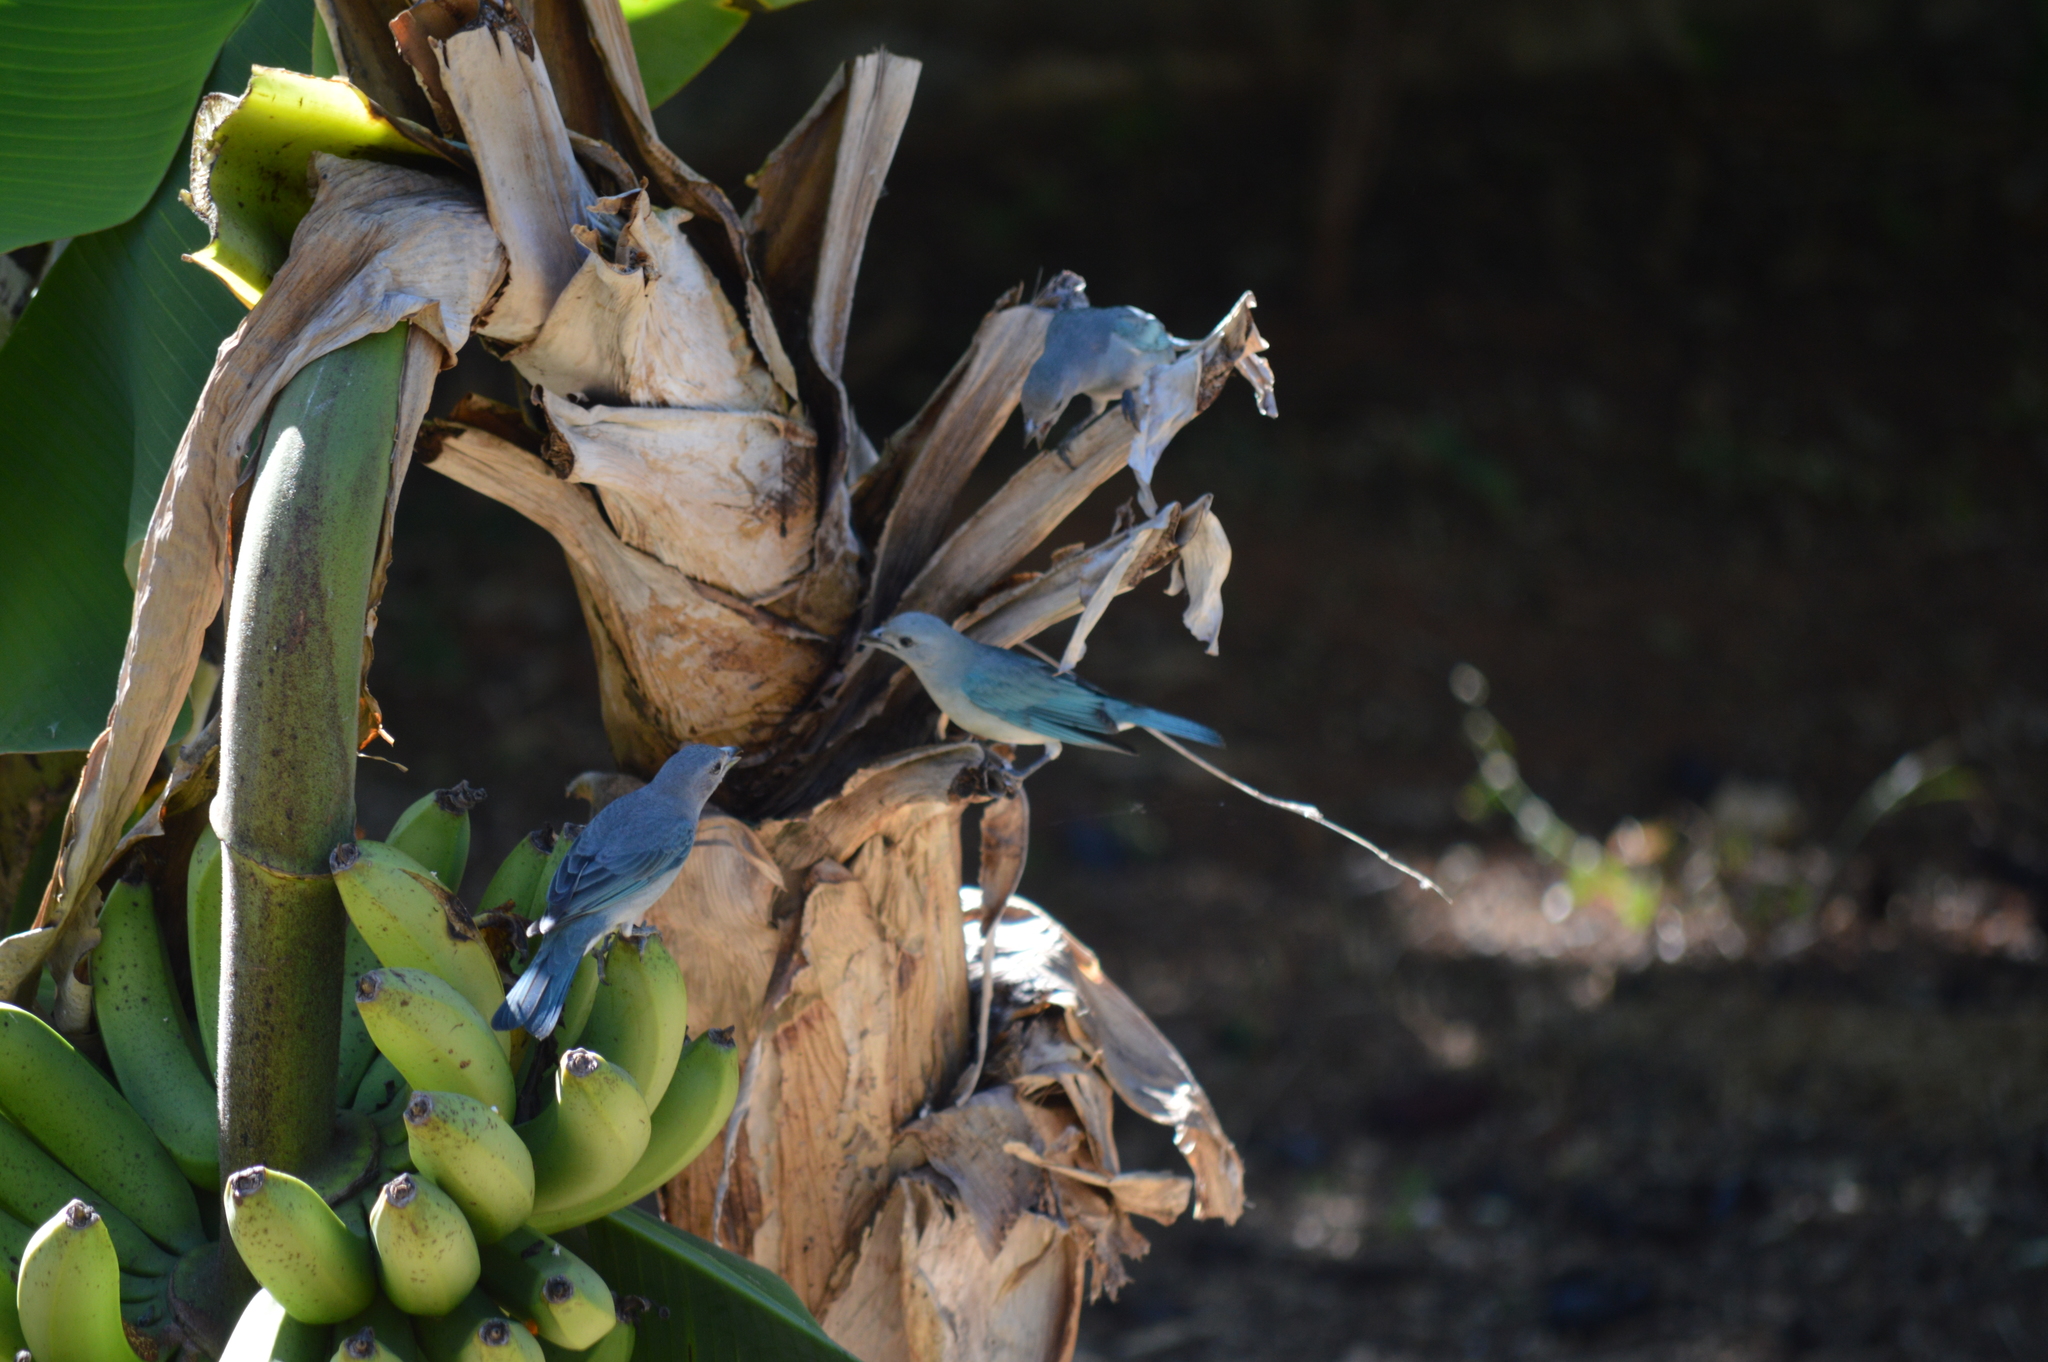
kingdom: Animalia
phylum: Chordata
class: Aves
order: Passeriformes
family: Thraupidae
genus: Thraupis
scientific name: Thraupis sayaca
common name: Sayaca tanager
